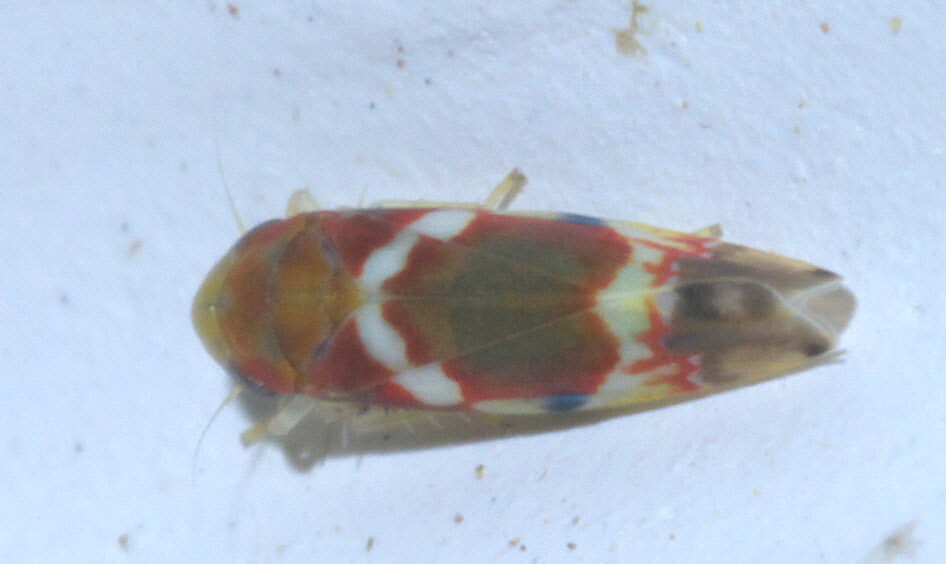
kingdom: Animalia
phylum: Arthropoda
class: Insecta
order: Hemiptera
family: Cicadellidae
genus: Erythroneura
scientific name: Erythroneura vitis
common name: Grapevine leafhopper
